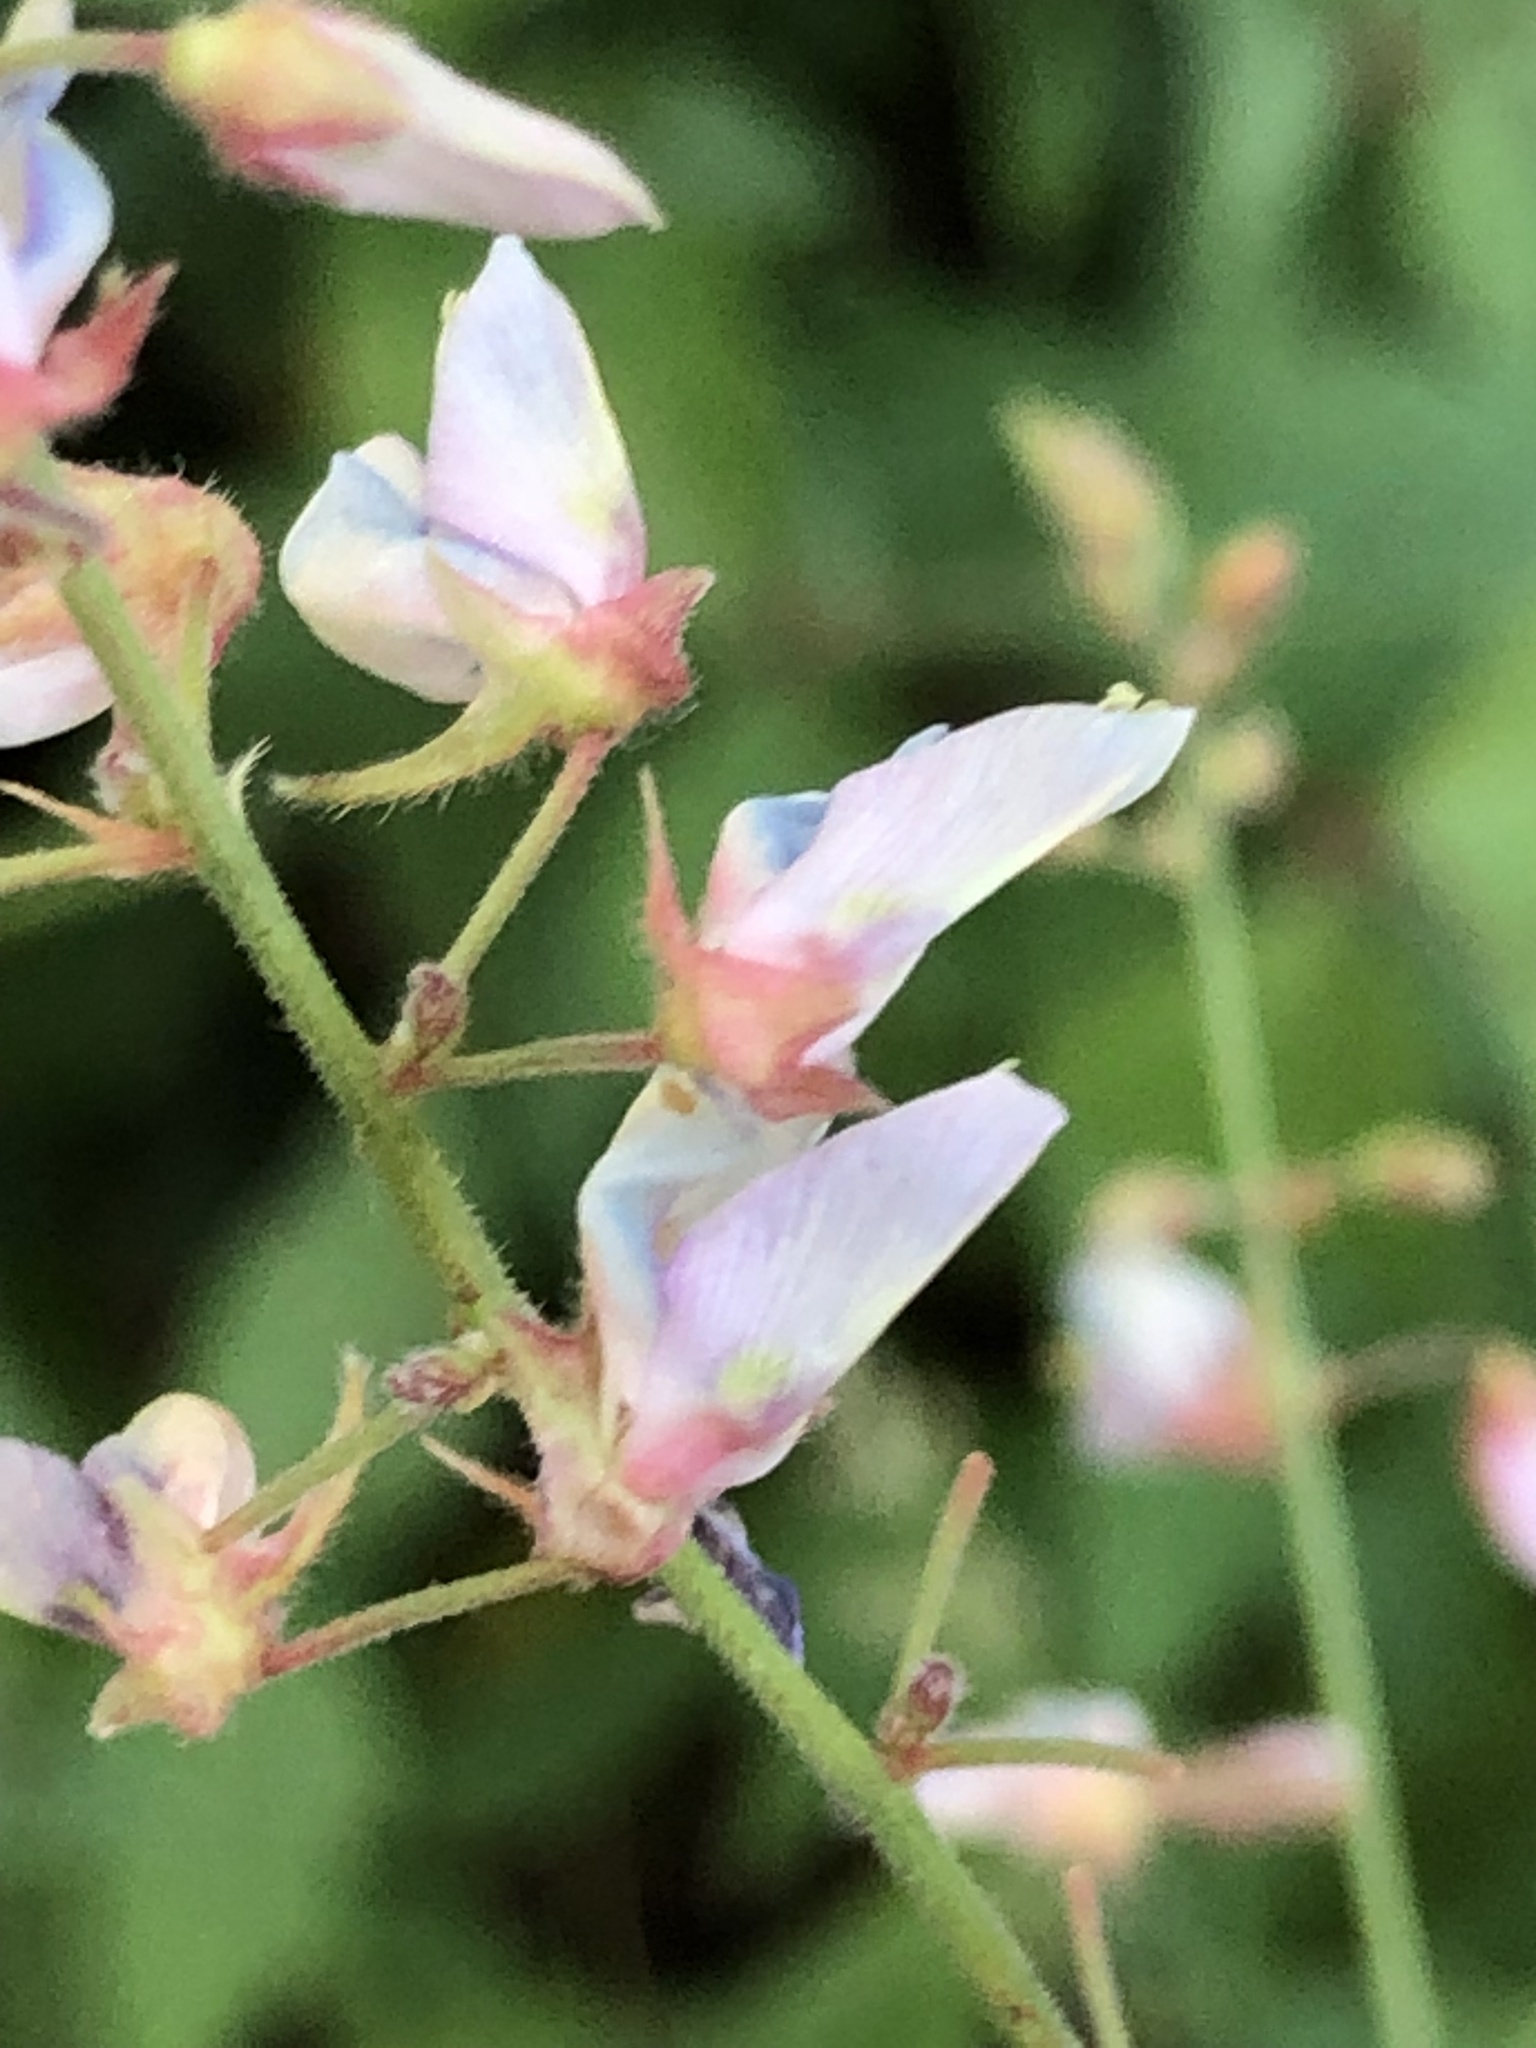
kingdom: Plantae
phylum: Tracheophyta
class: Magnoliopsida
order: Fabales
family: Fabaceae
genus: Desmodium
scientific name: Desmodium glabellum
